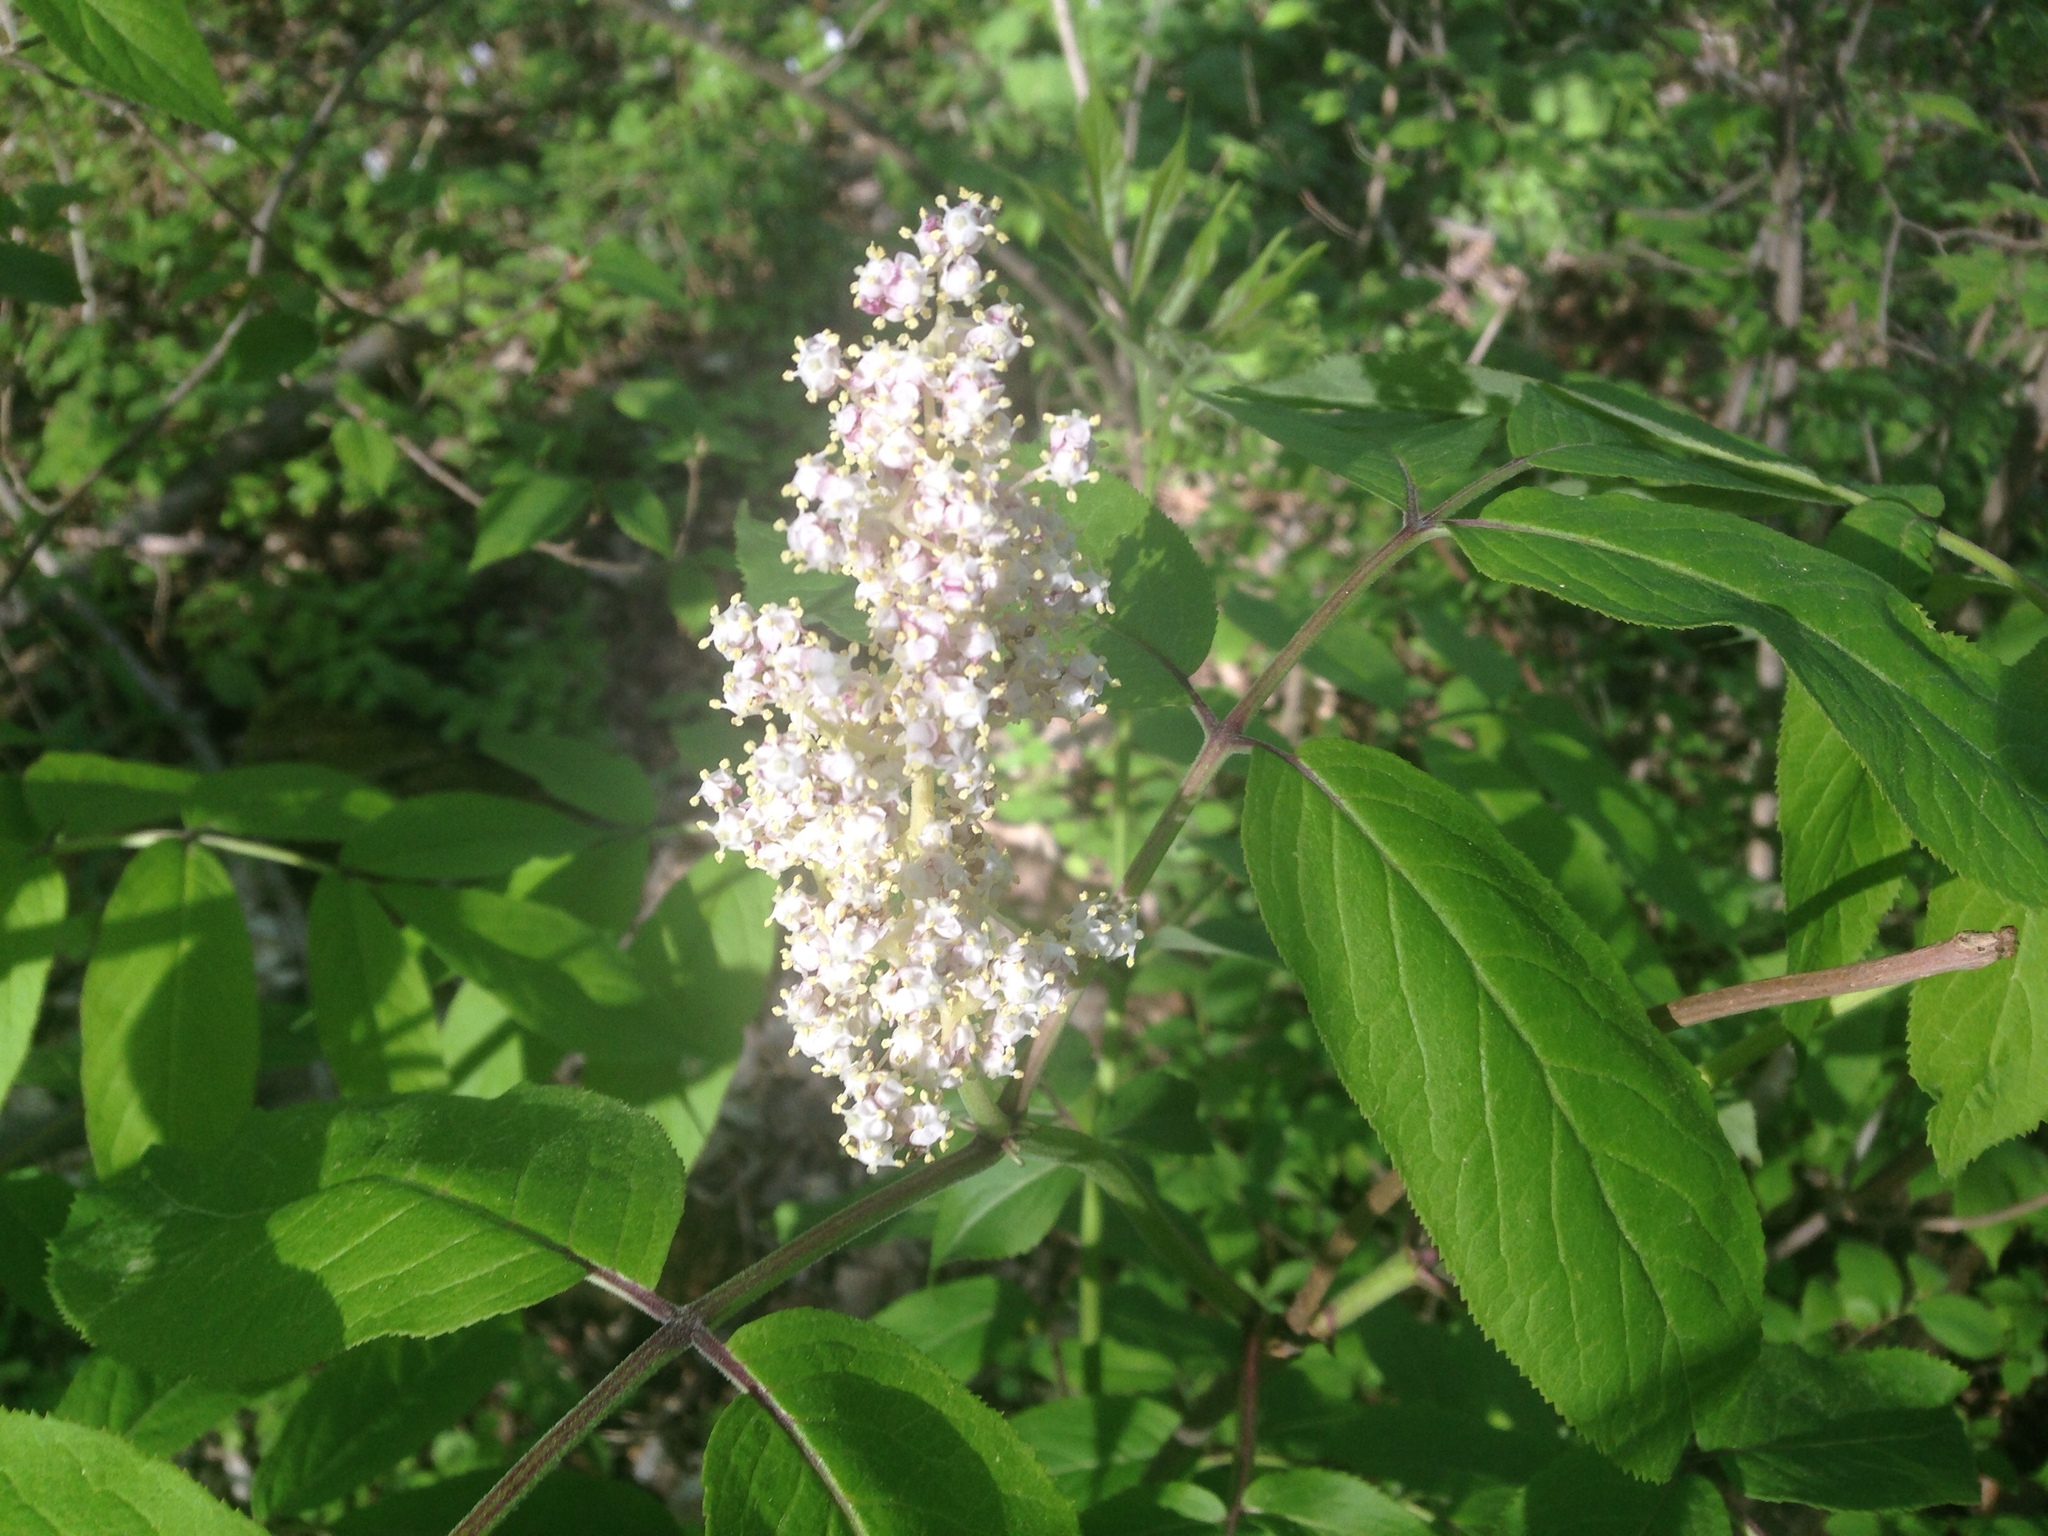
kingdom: Plantae
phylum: Tracheophyta
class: Magnoliopsida
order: Dipsacales
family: Viburnaceae
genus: Sambucus
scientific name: Sambucus racemosa
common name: Red-berried elder
